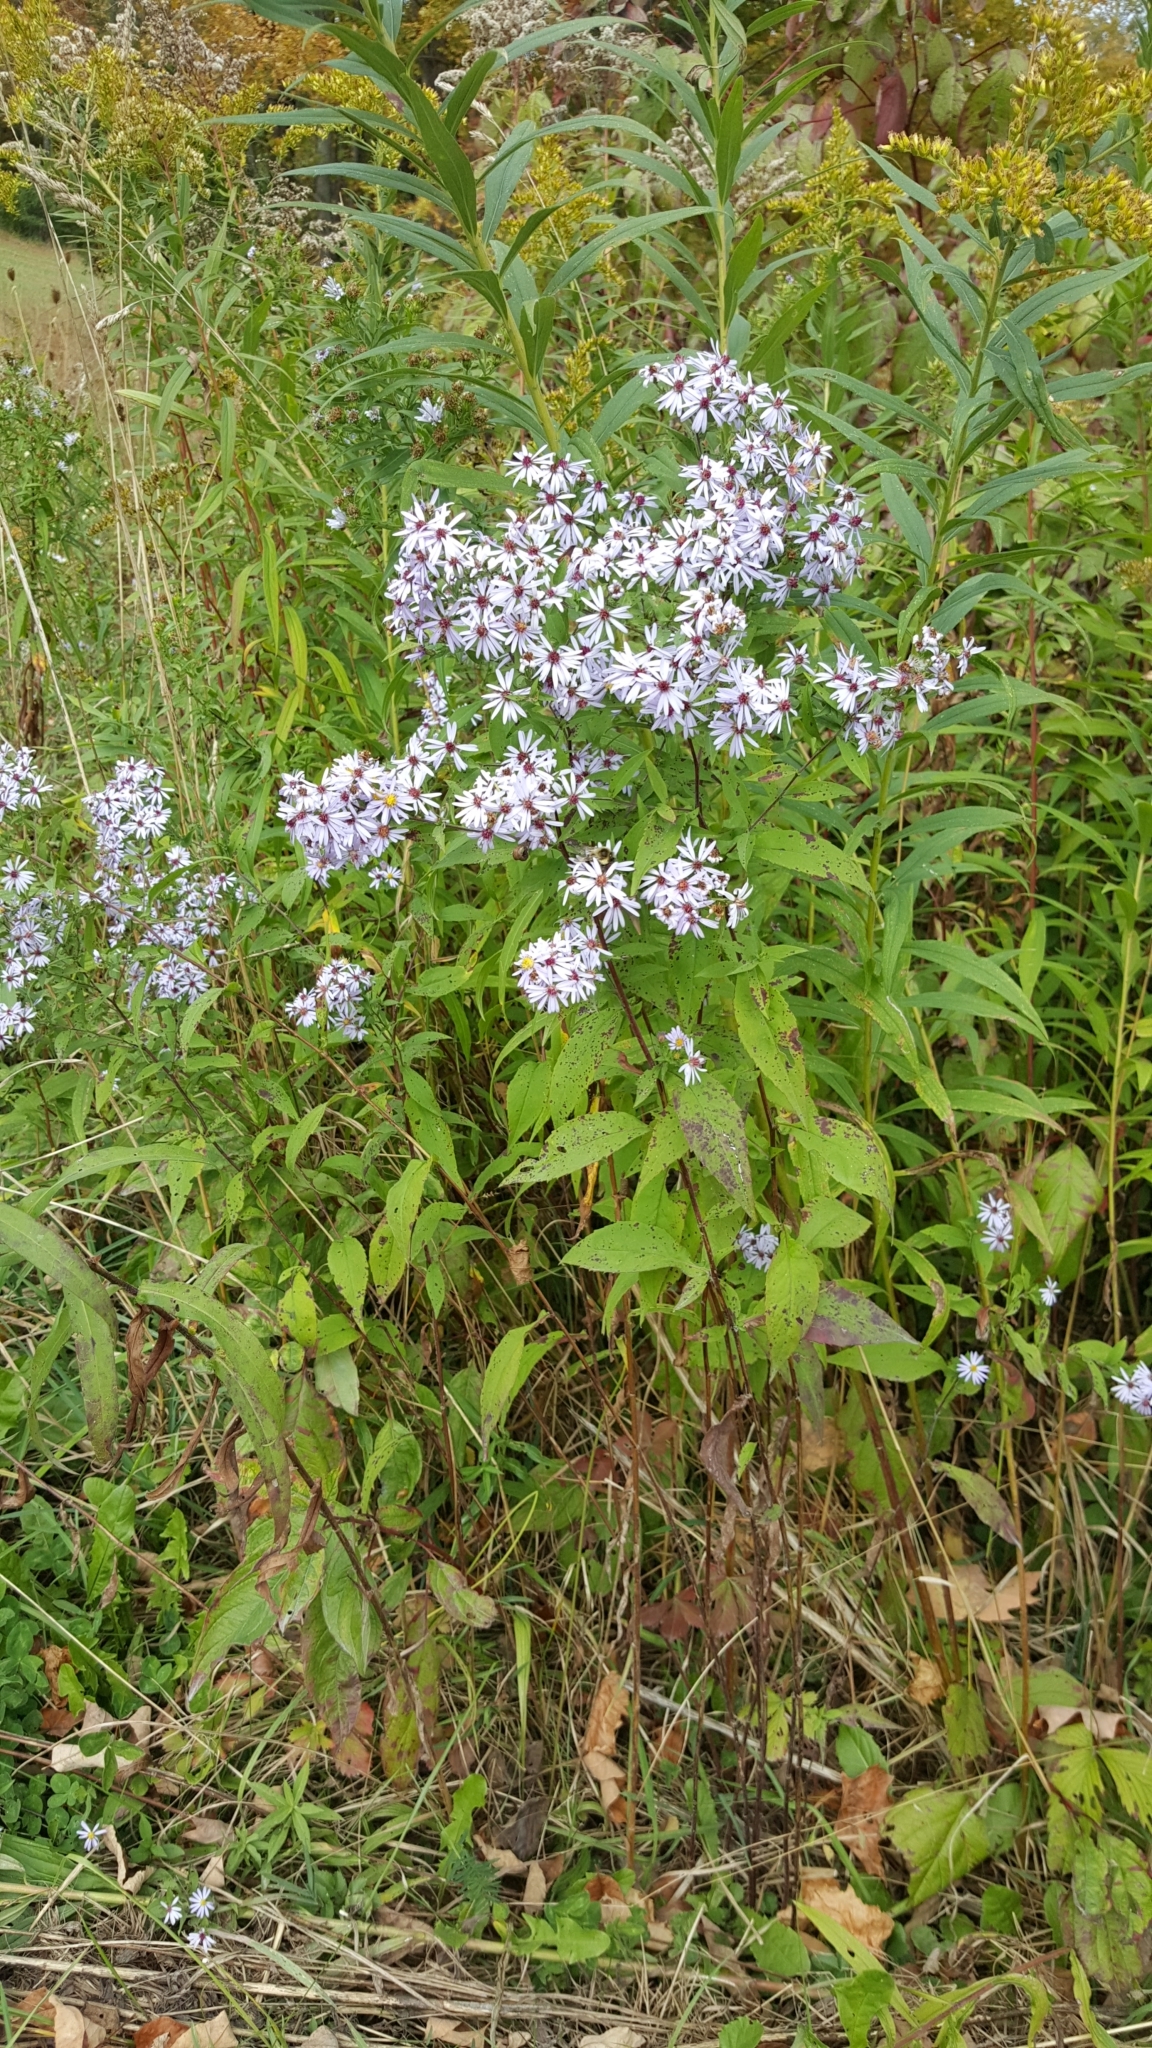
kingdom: Plantae
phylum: Tracheophyta
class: Magnoliopsida
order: Asterales
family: Asteraceae
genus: Symphyotrichum
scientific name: Symphyotrichum cordifolium
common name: Beeweed
